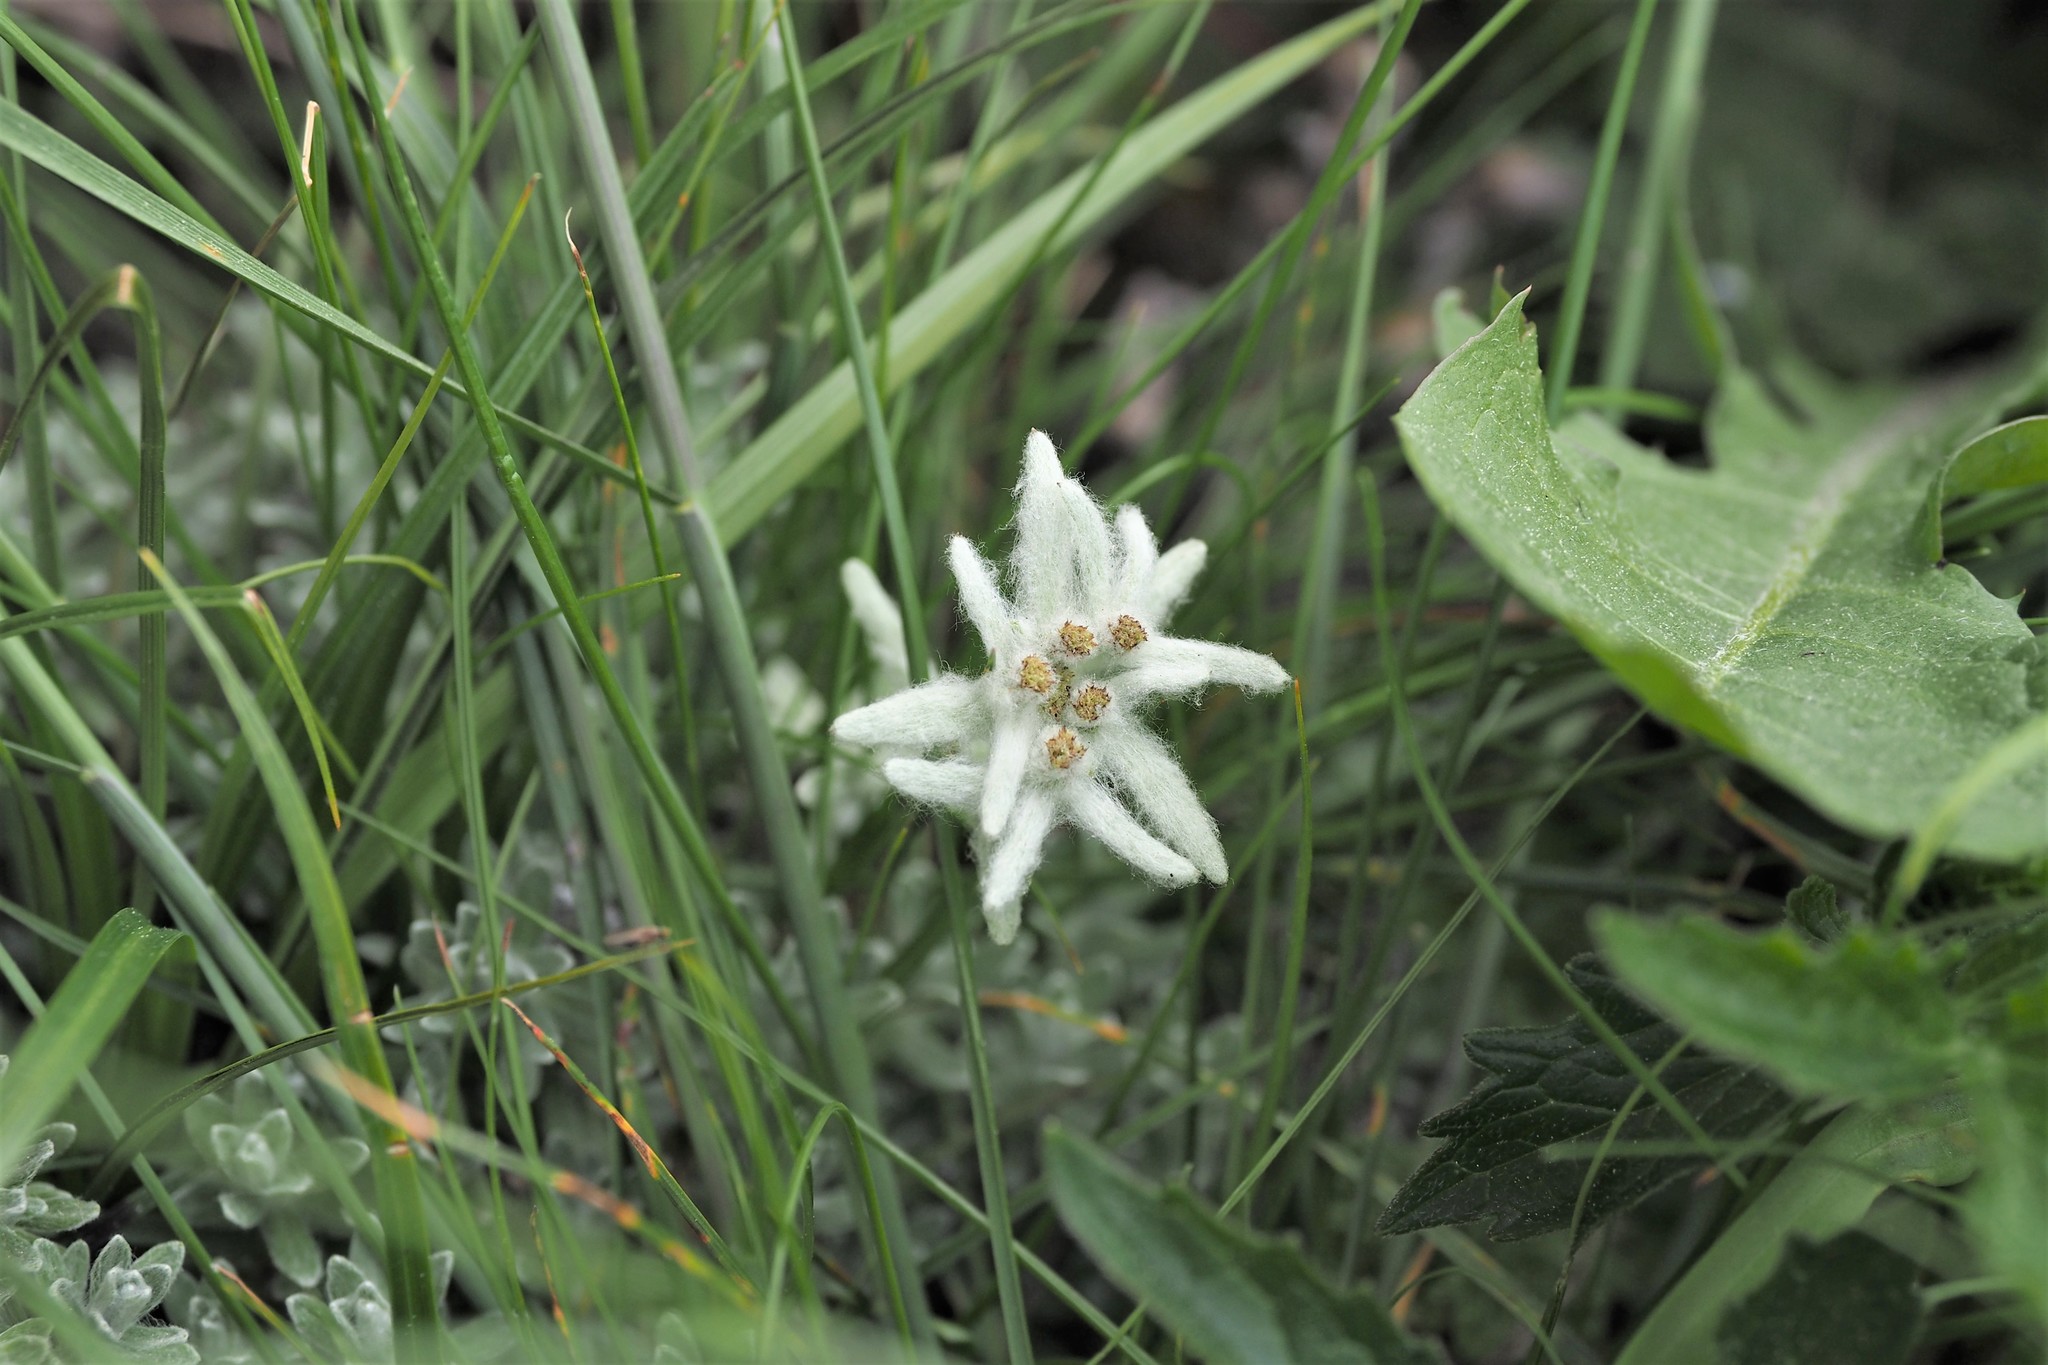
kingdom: Plantae
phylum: Tracheophyta
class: Magnoliopsida
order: Asterales
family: Asteraceae
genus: Leontopodium
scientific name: Leontopodium microphyllum
